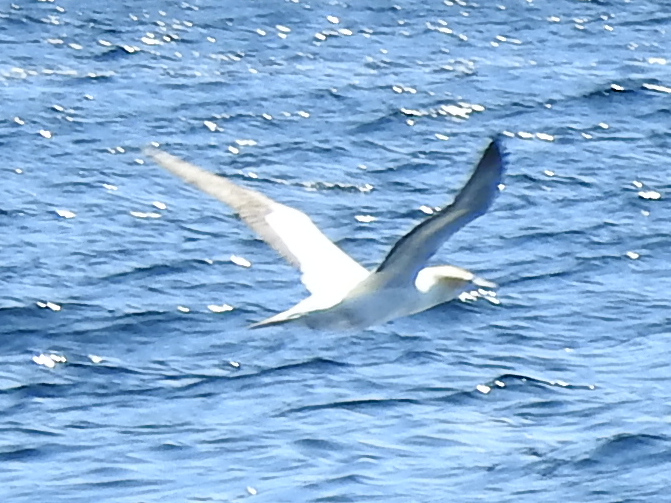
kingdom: Animalia
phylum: Chordata
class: Aves
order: Suliformes
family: Sulidae
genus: Morus
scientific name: Morus serrator
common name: Australasian gannet
